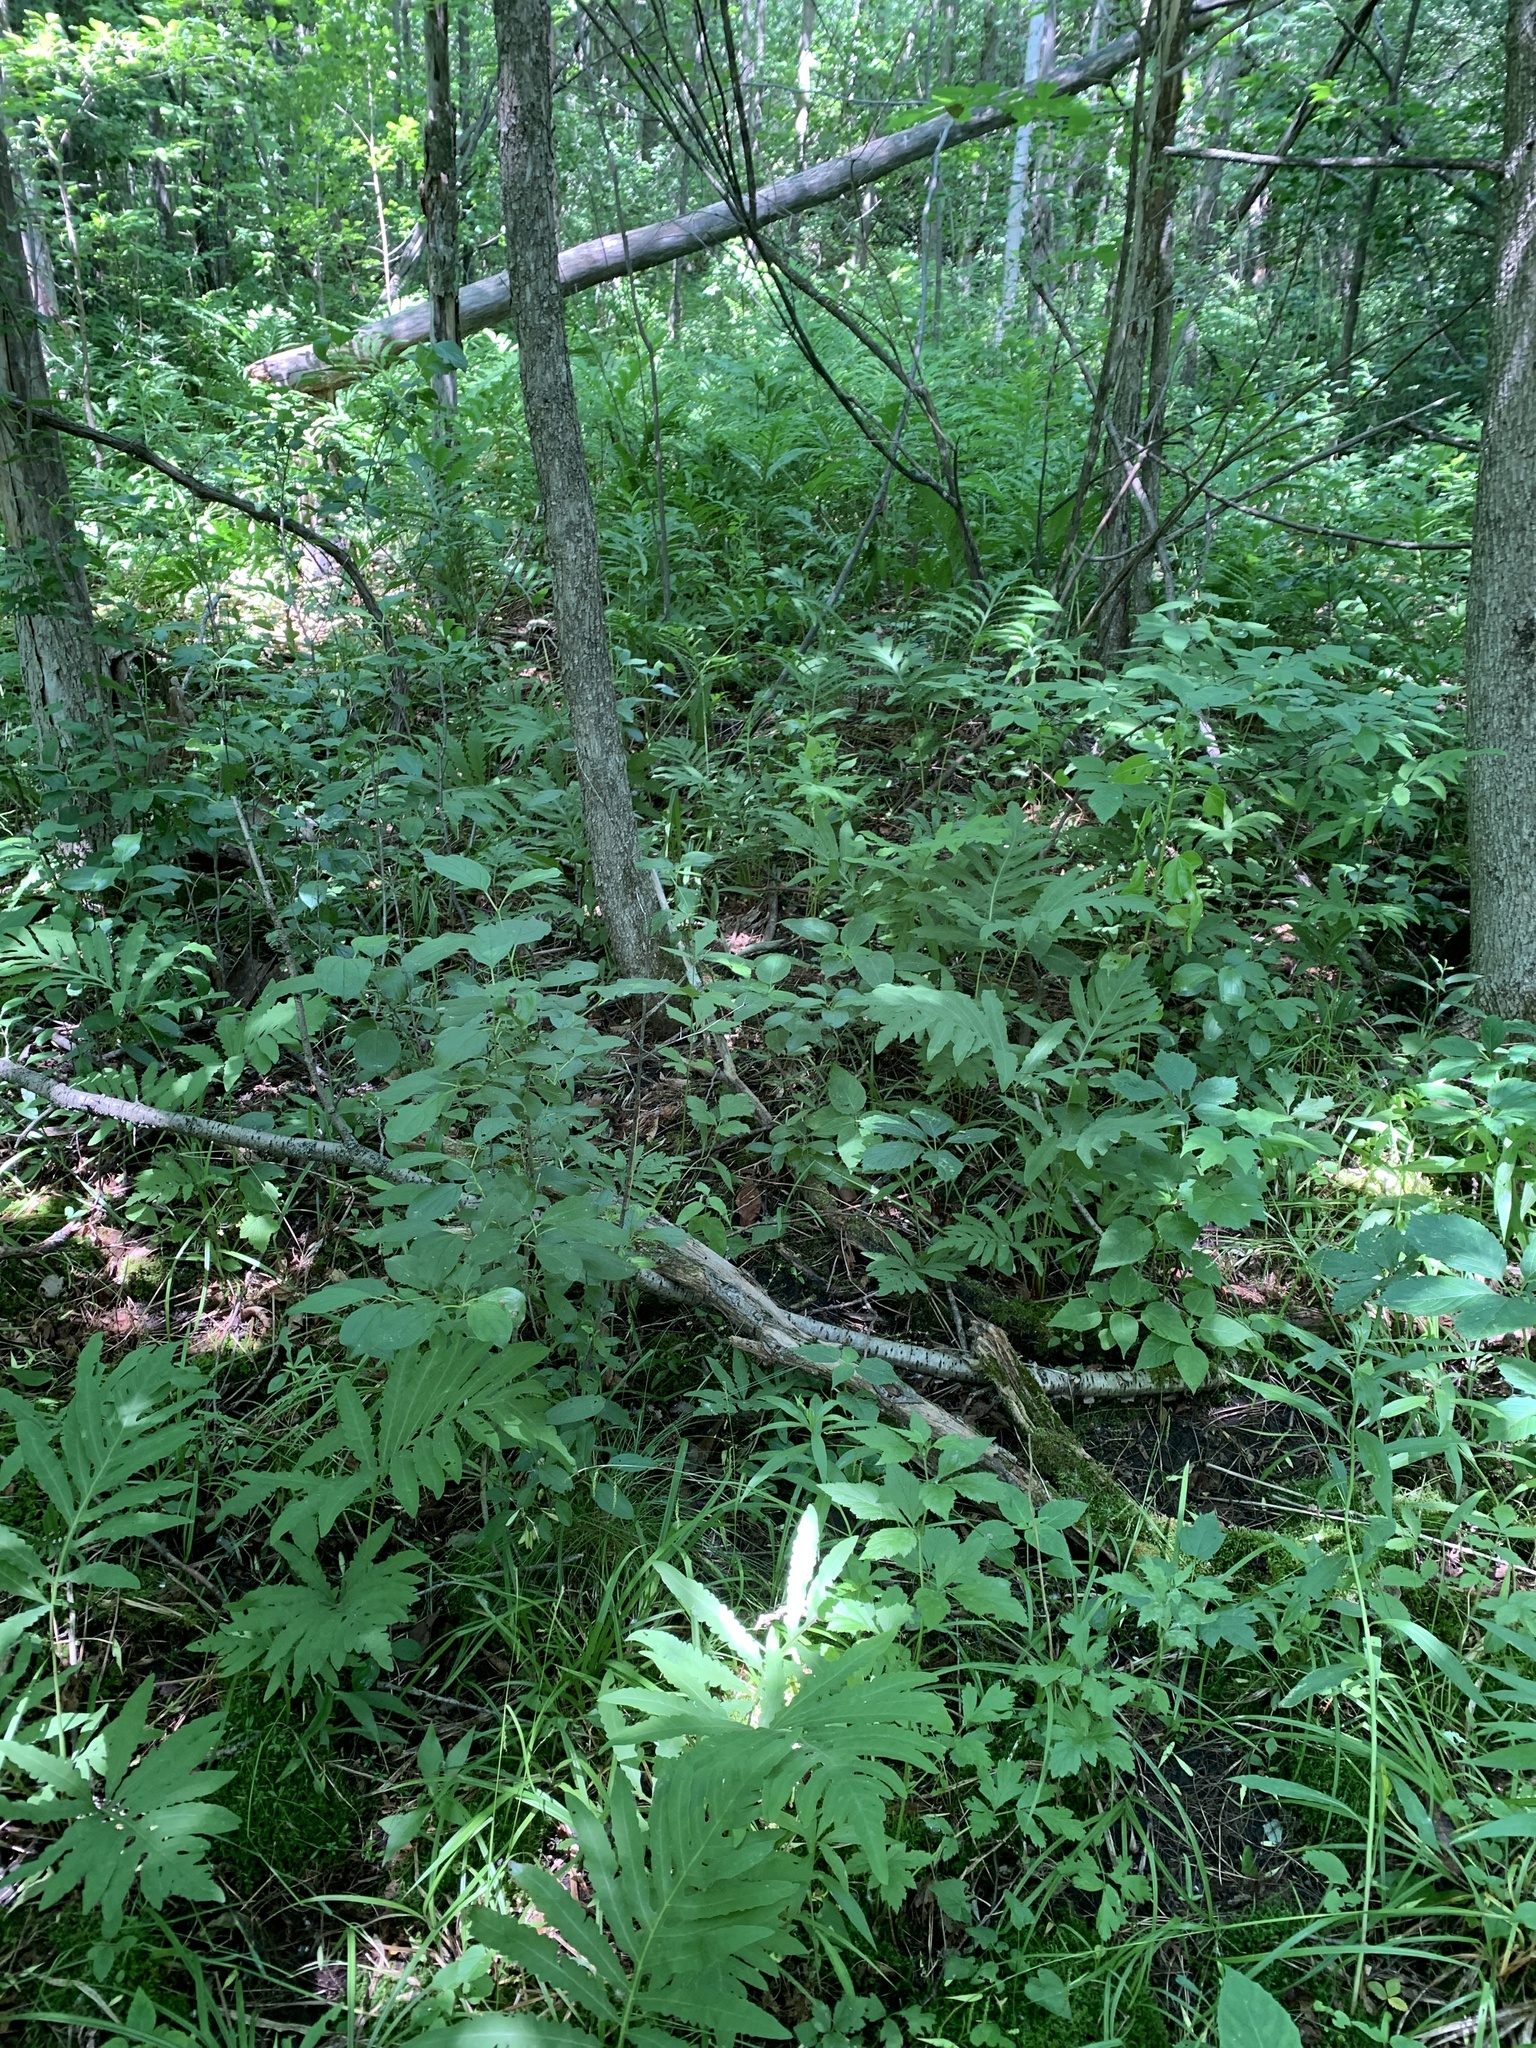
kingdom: Plantae
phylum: Tracheophyta
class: Polypodiopsida
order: Polypodiales
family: Onocleaceae
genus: Onoclea
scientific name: Onoclea sensibilis
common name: Sensitive fern
